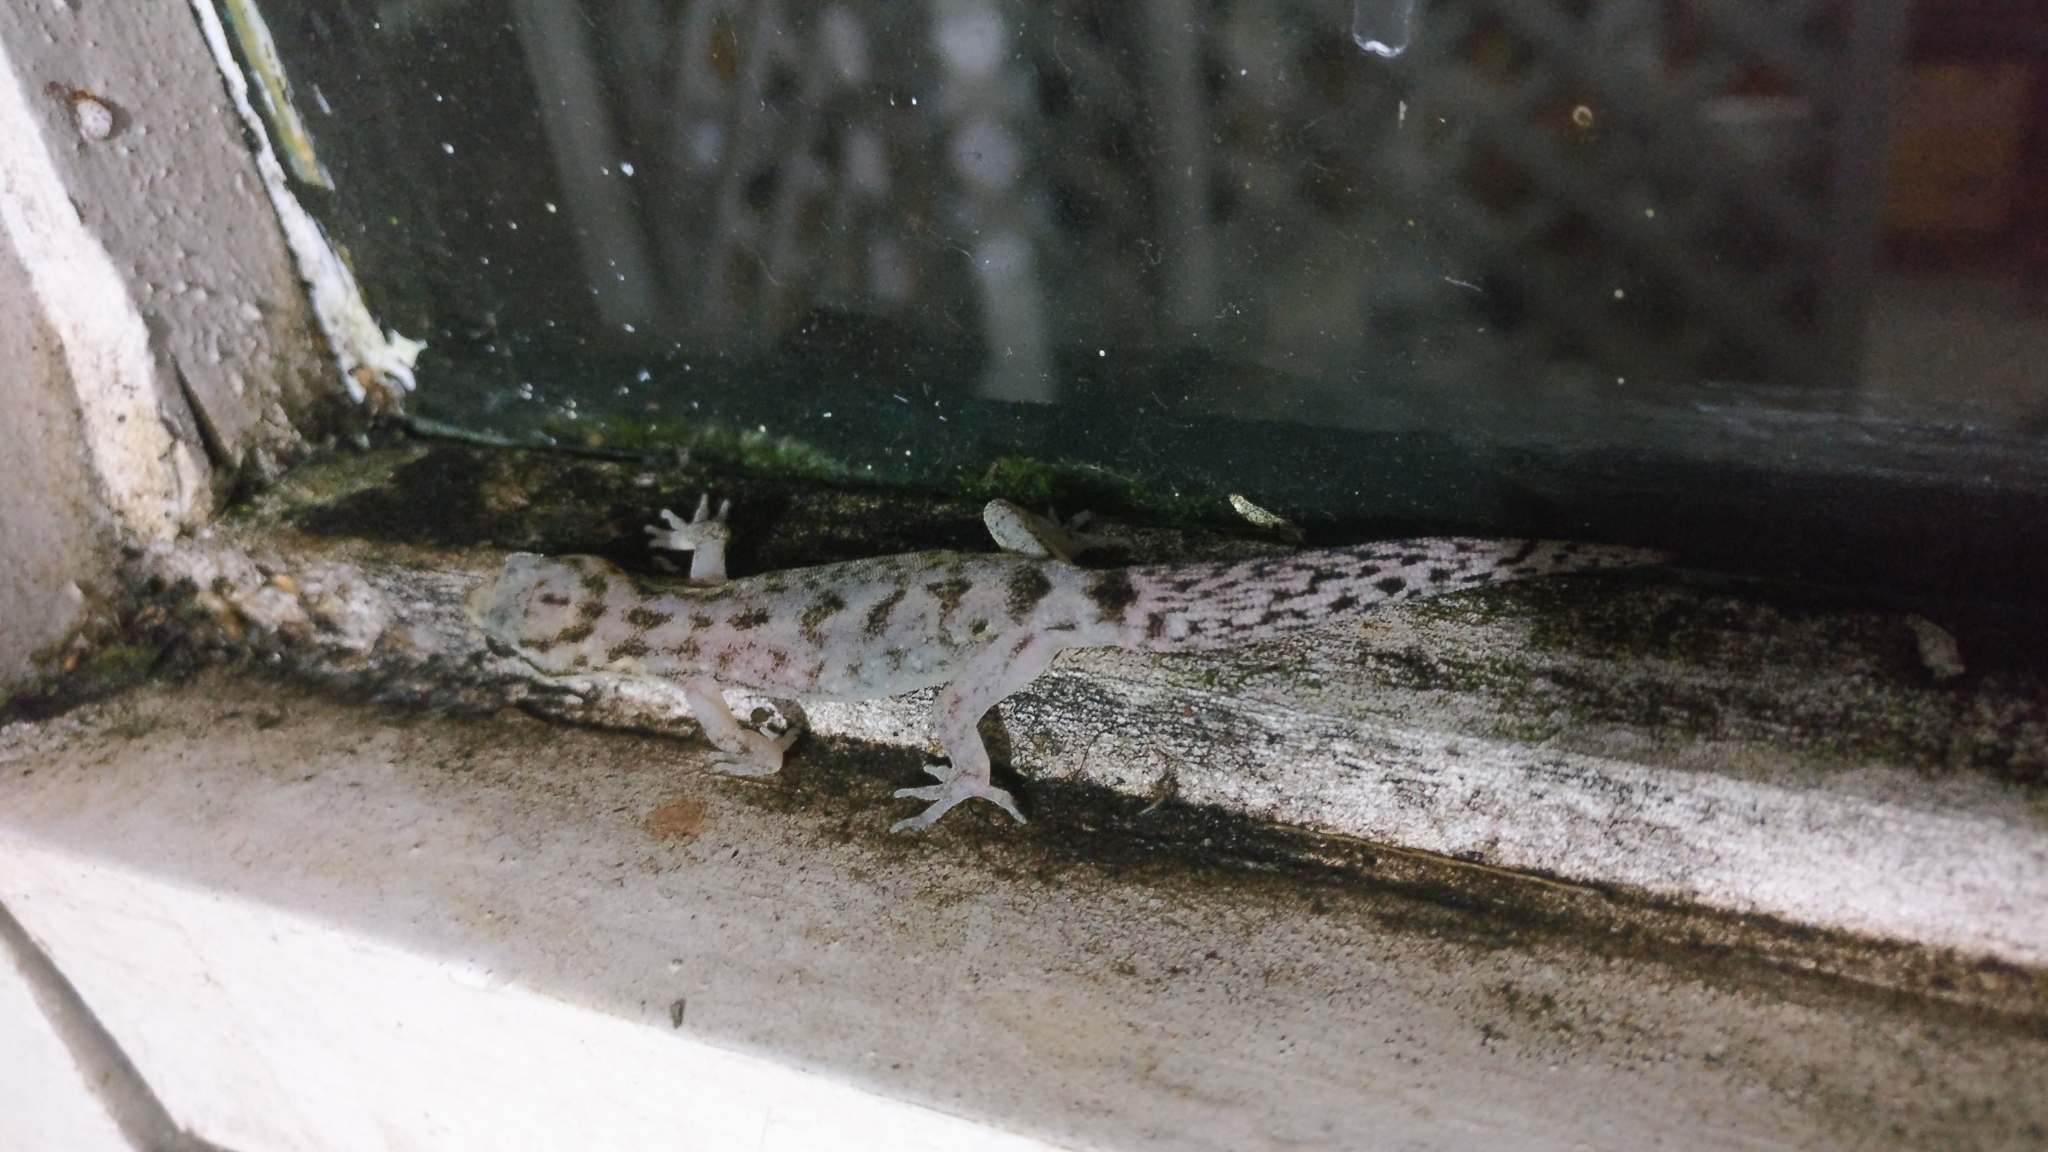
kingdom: Animalia
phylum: Chordata
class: Squamata
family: Gekkonidae
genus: Dravidogecko
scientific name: Dravidogecko tholpalli
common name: Kodaikanal dravidogecko
